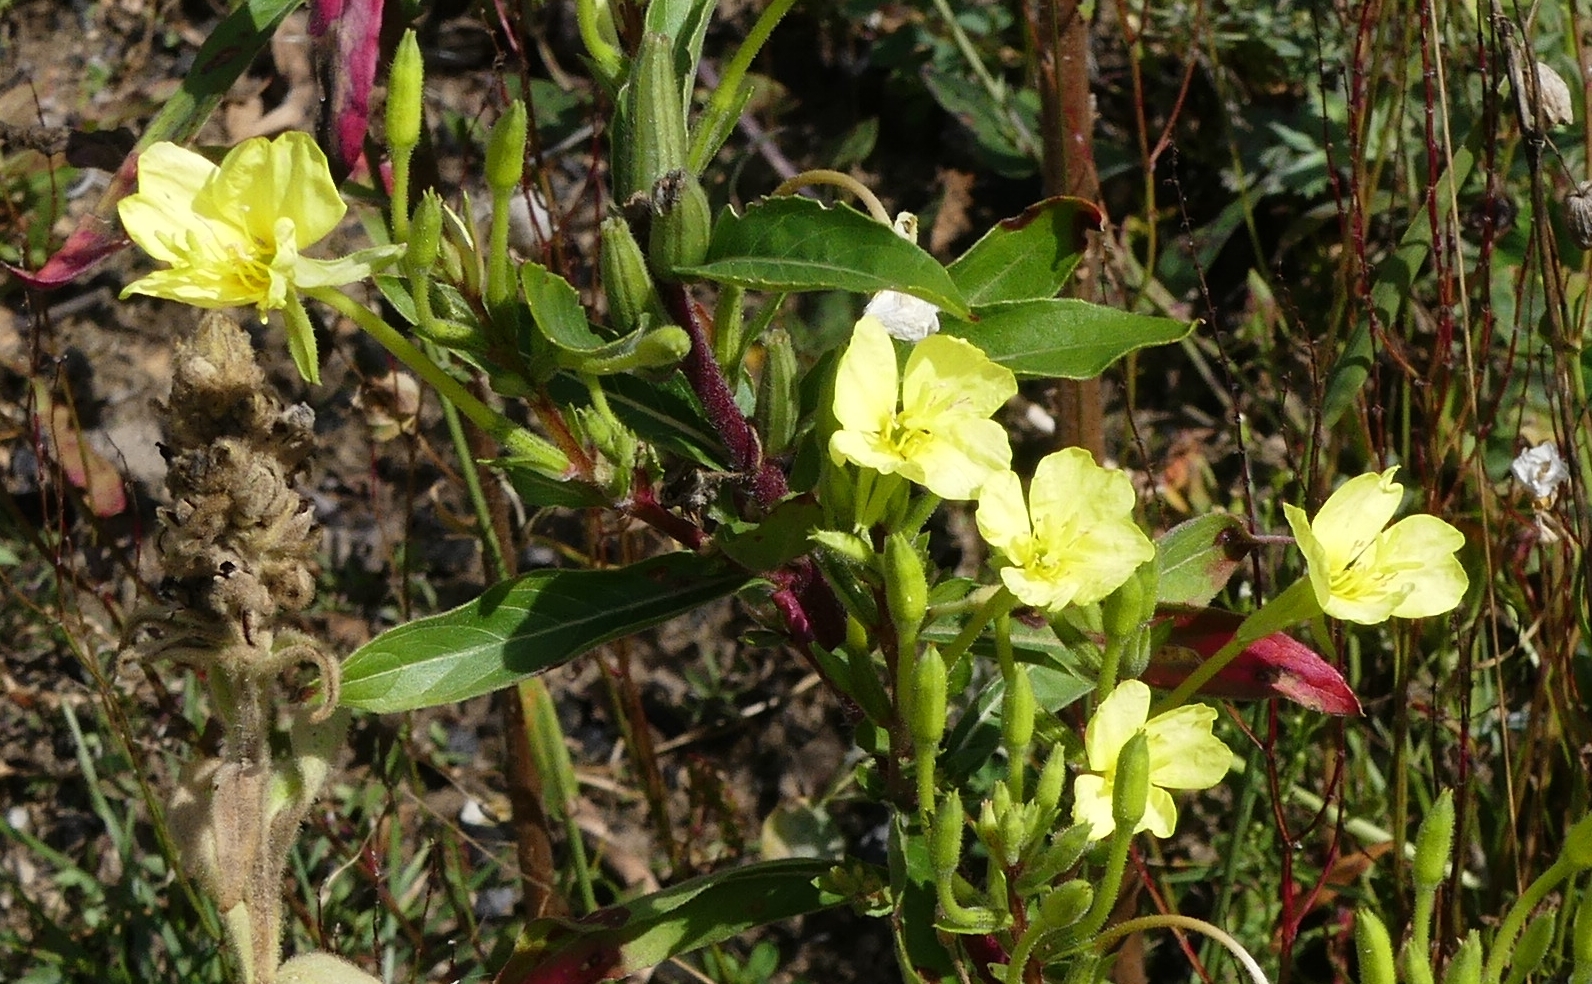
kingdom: Plantae
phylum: Tracheophyta
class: Magnoliopsida
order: Myrtales
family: Onagraceae
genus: Oenothera
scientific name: Oenothera parviflora
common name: Least evening-primrose
